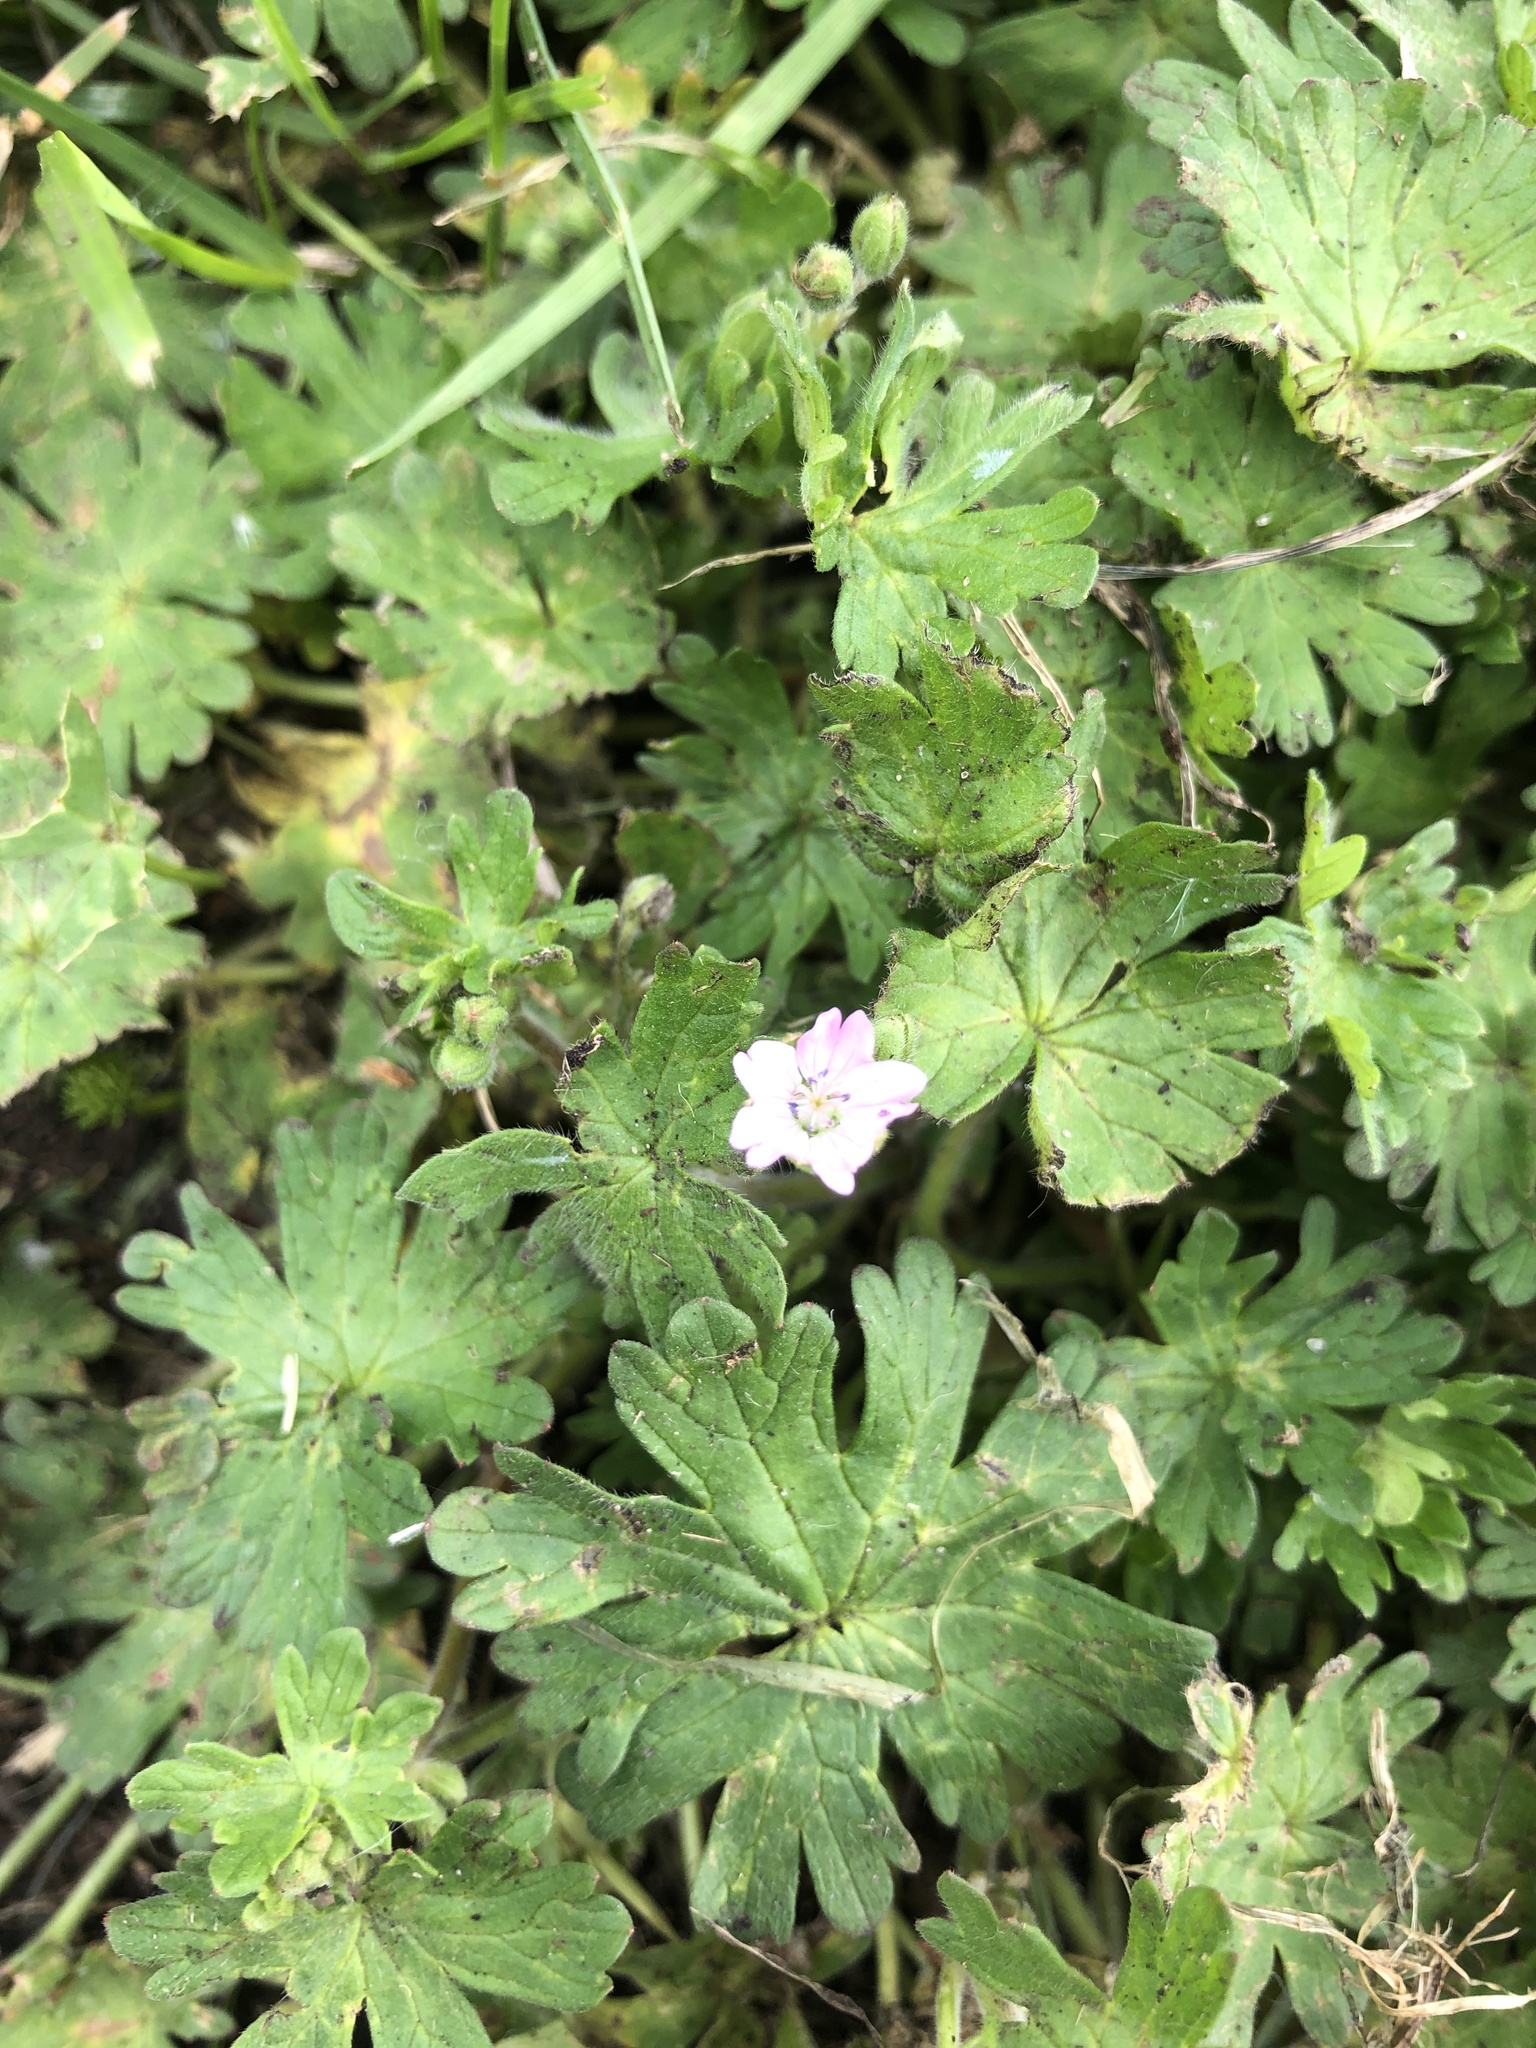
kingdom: Plantae
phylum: Tracheophyta
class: Magnoliopsida
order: Geraniales
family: Geraniaceae
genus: Geranium
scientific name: Geranium pyrenaicum
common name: Hedgerow crane's-bill
